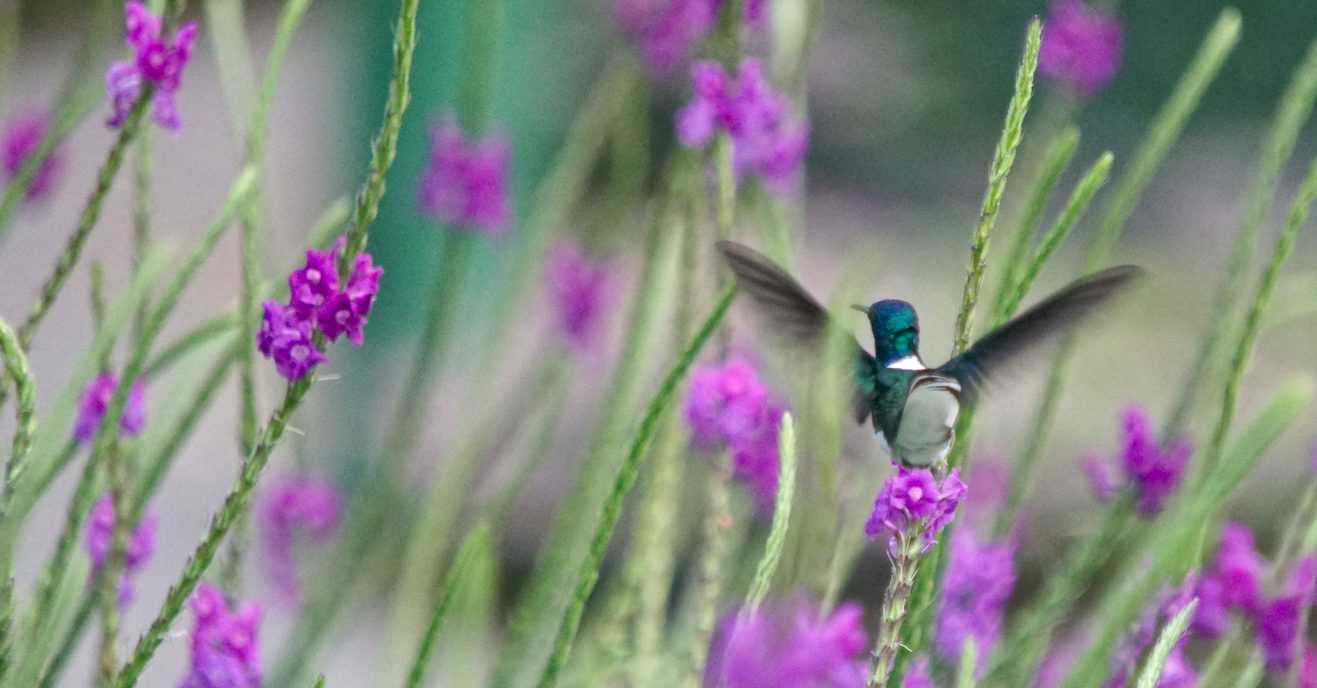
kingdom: Animalia
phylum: Chordata
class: Aves
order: Apodiformes
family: Trochilidae
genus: Florisuga
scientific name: Florisuga mellivora
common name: White-necked jacobin
